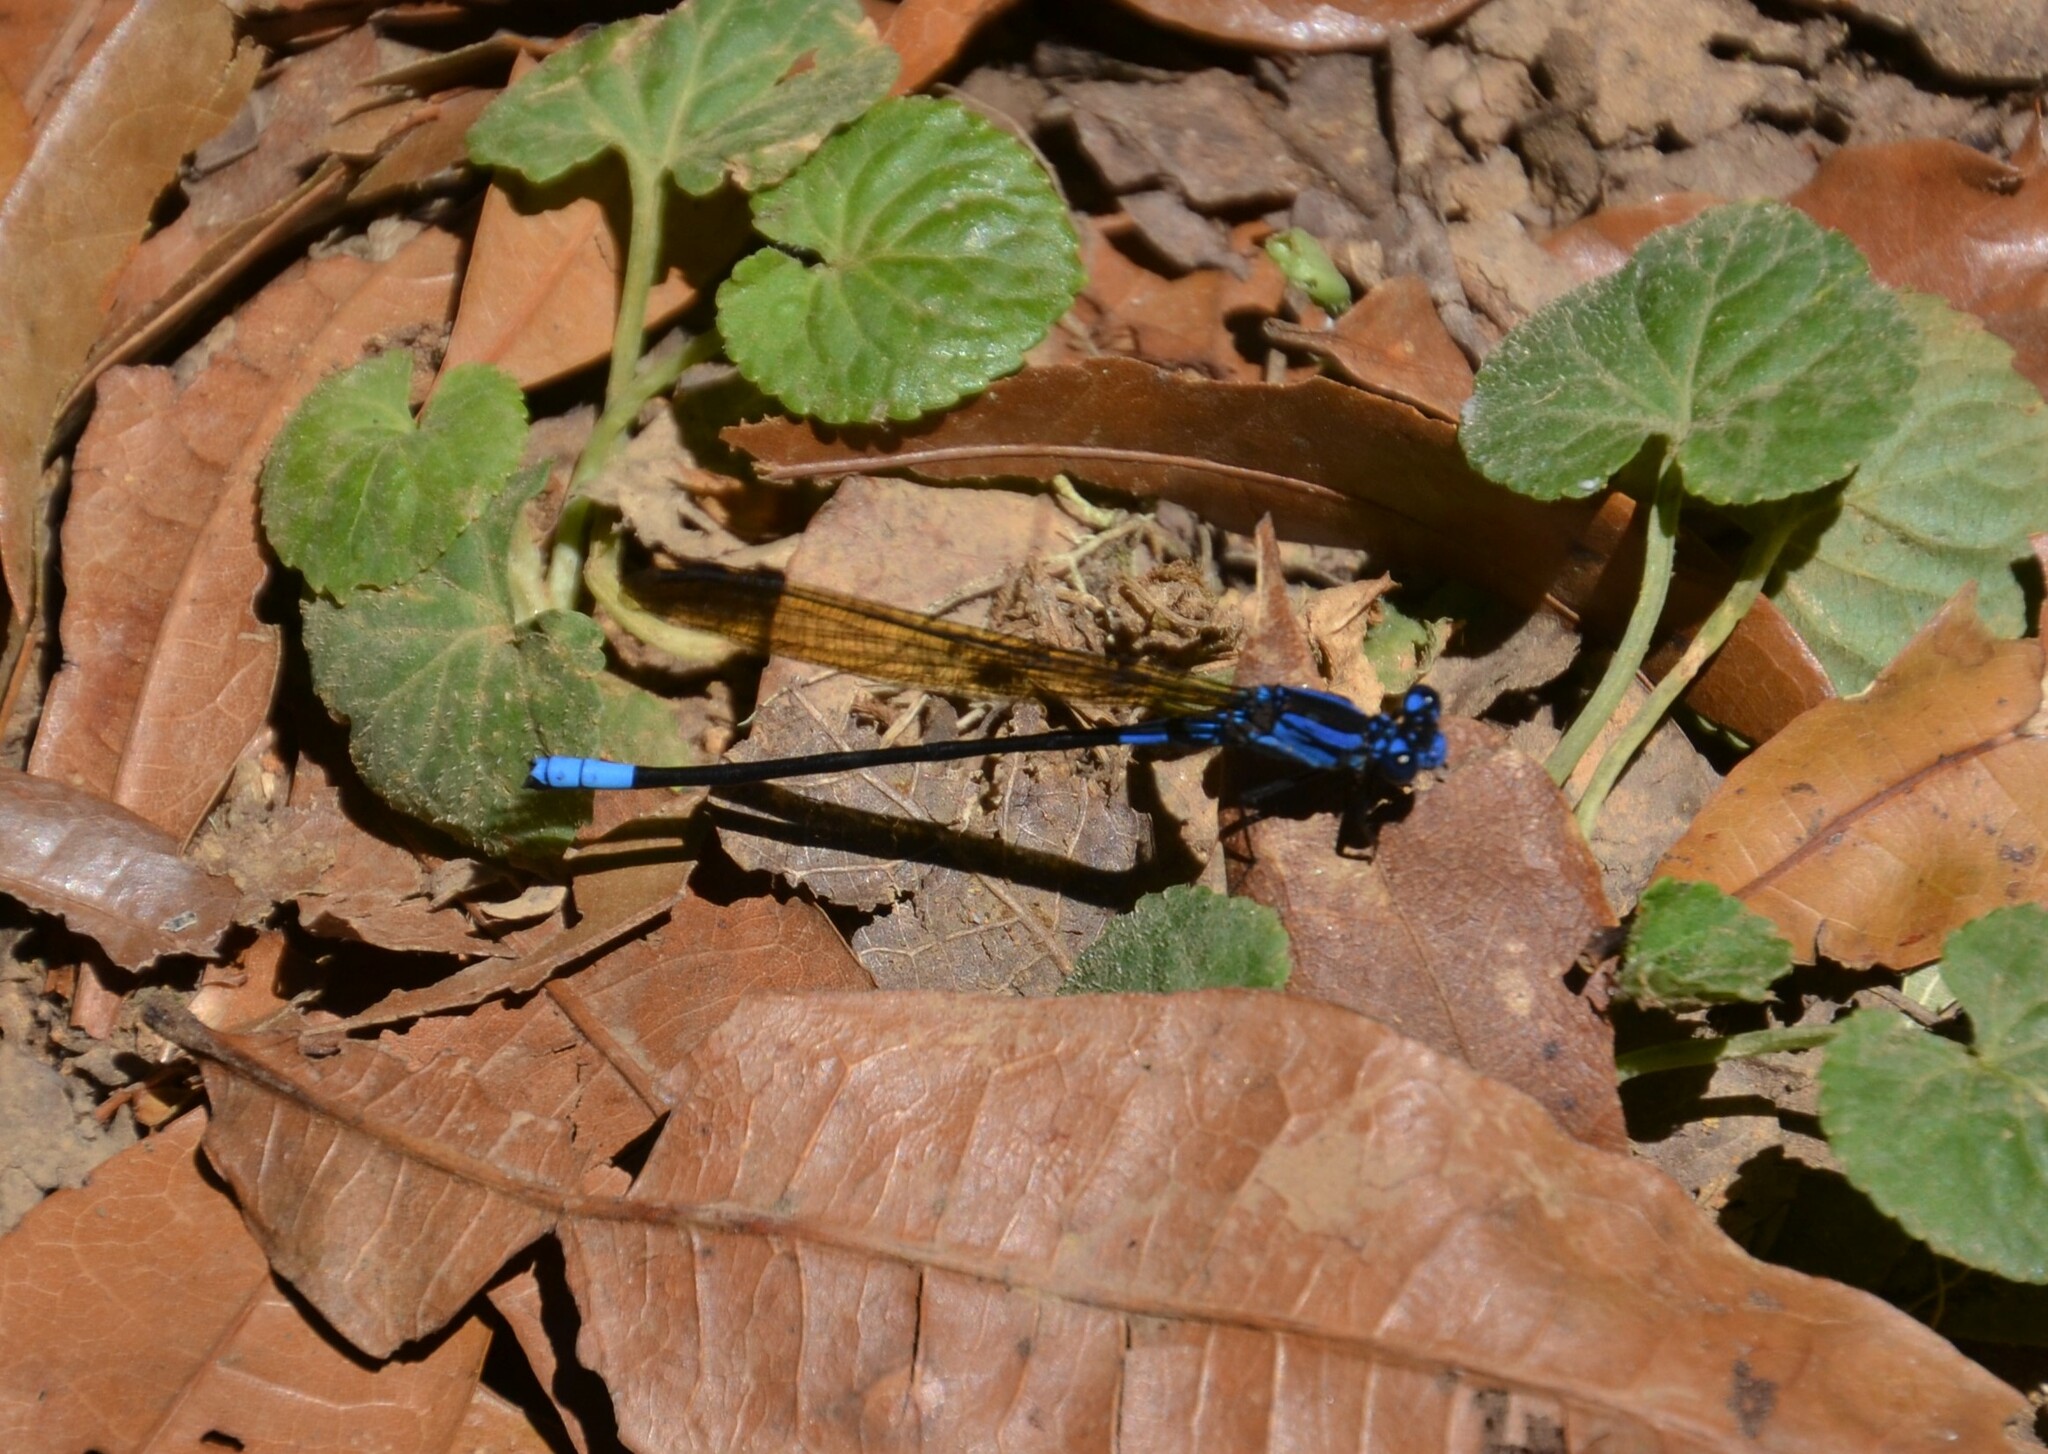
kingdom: Animalia
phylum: Arthropoda
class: Insecta
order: Odonata
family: Coenagrionidae
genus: Argia
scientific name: Argia terira
